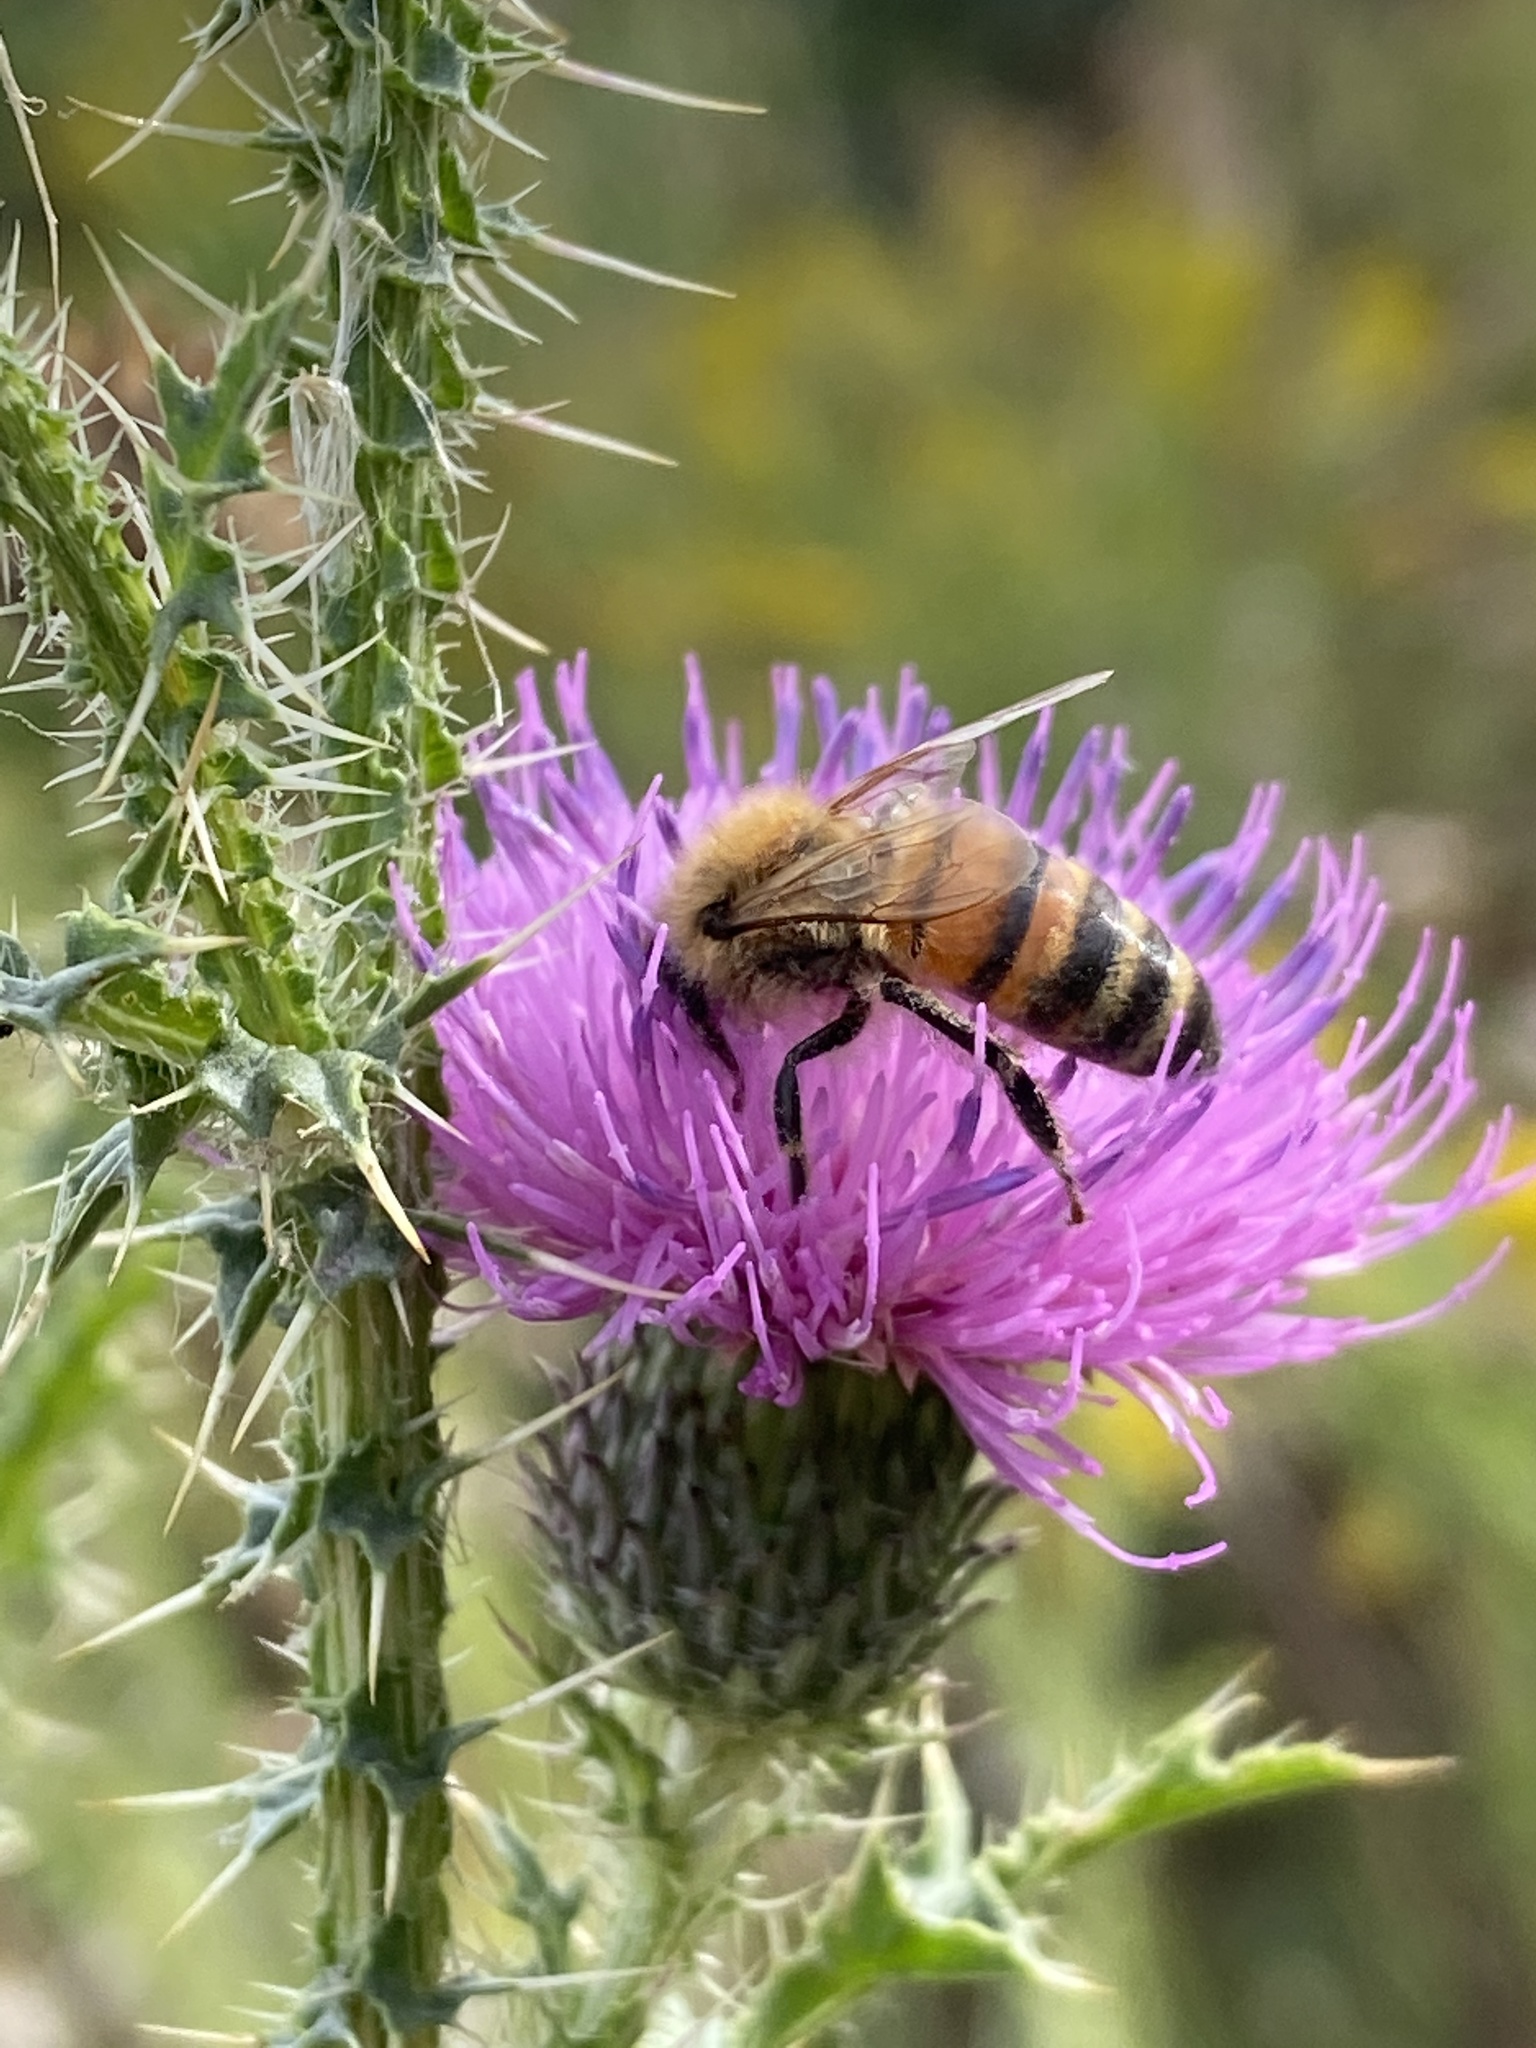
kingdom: Animalia
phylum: Arthropoda
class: Insecta
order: Hymenoptera
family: Apidae
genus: Apis
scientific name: Apis mellifera
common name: Honey bee
